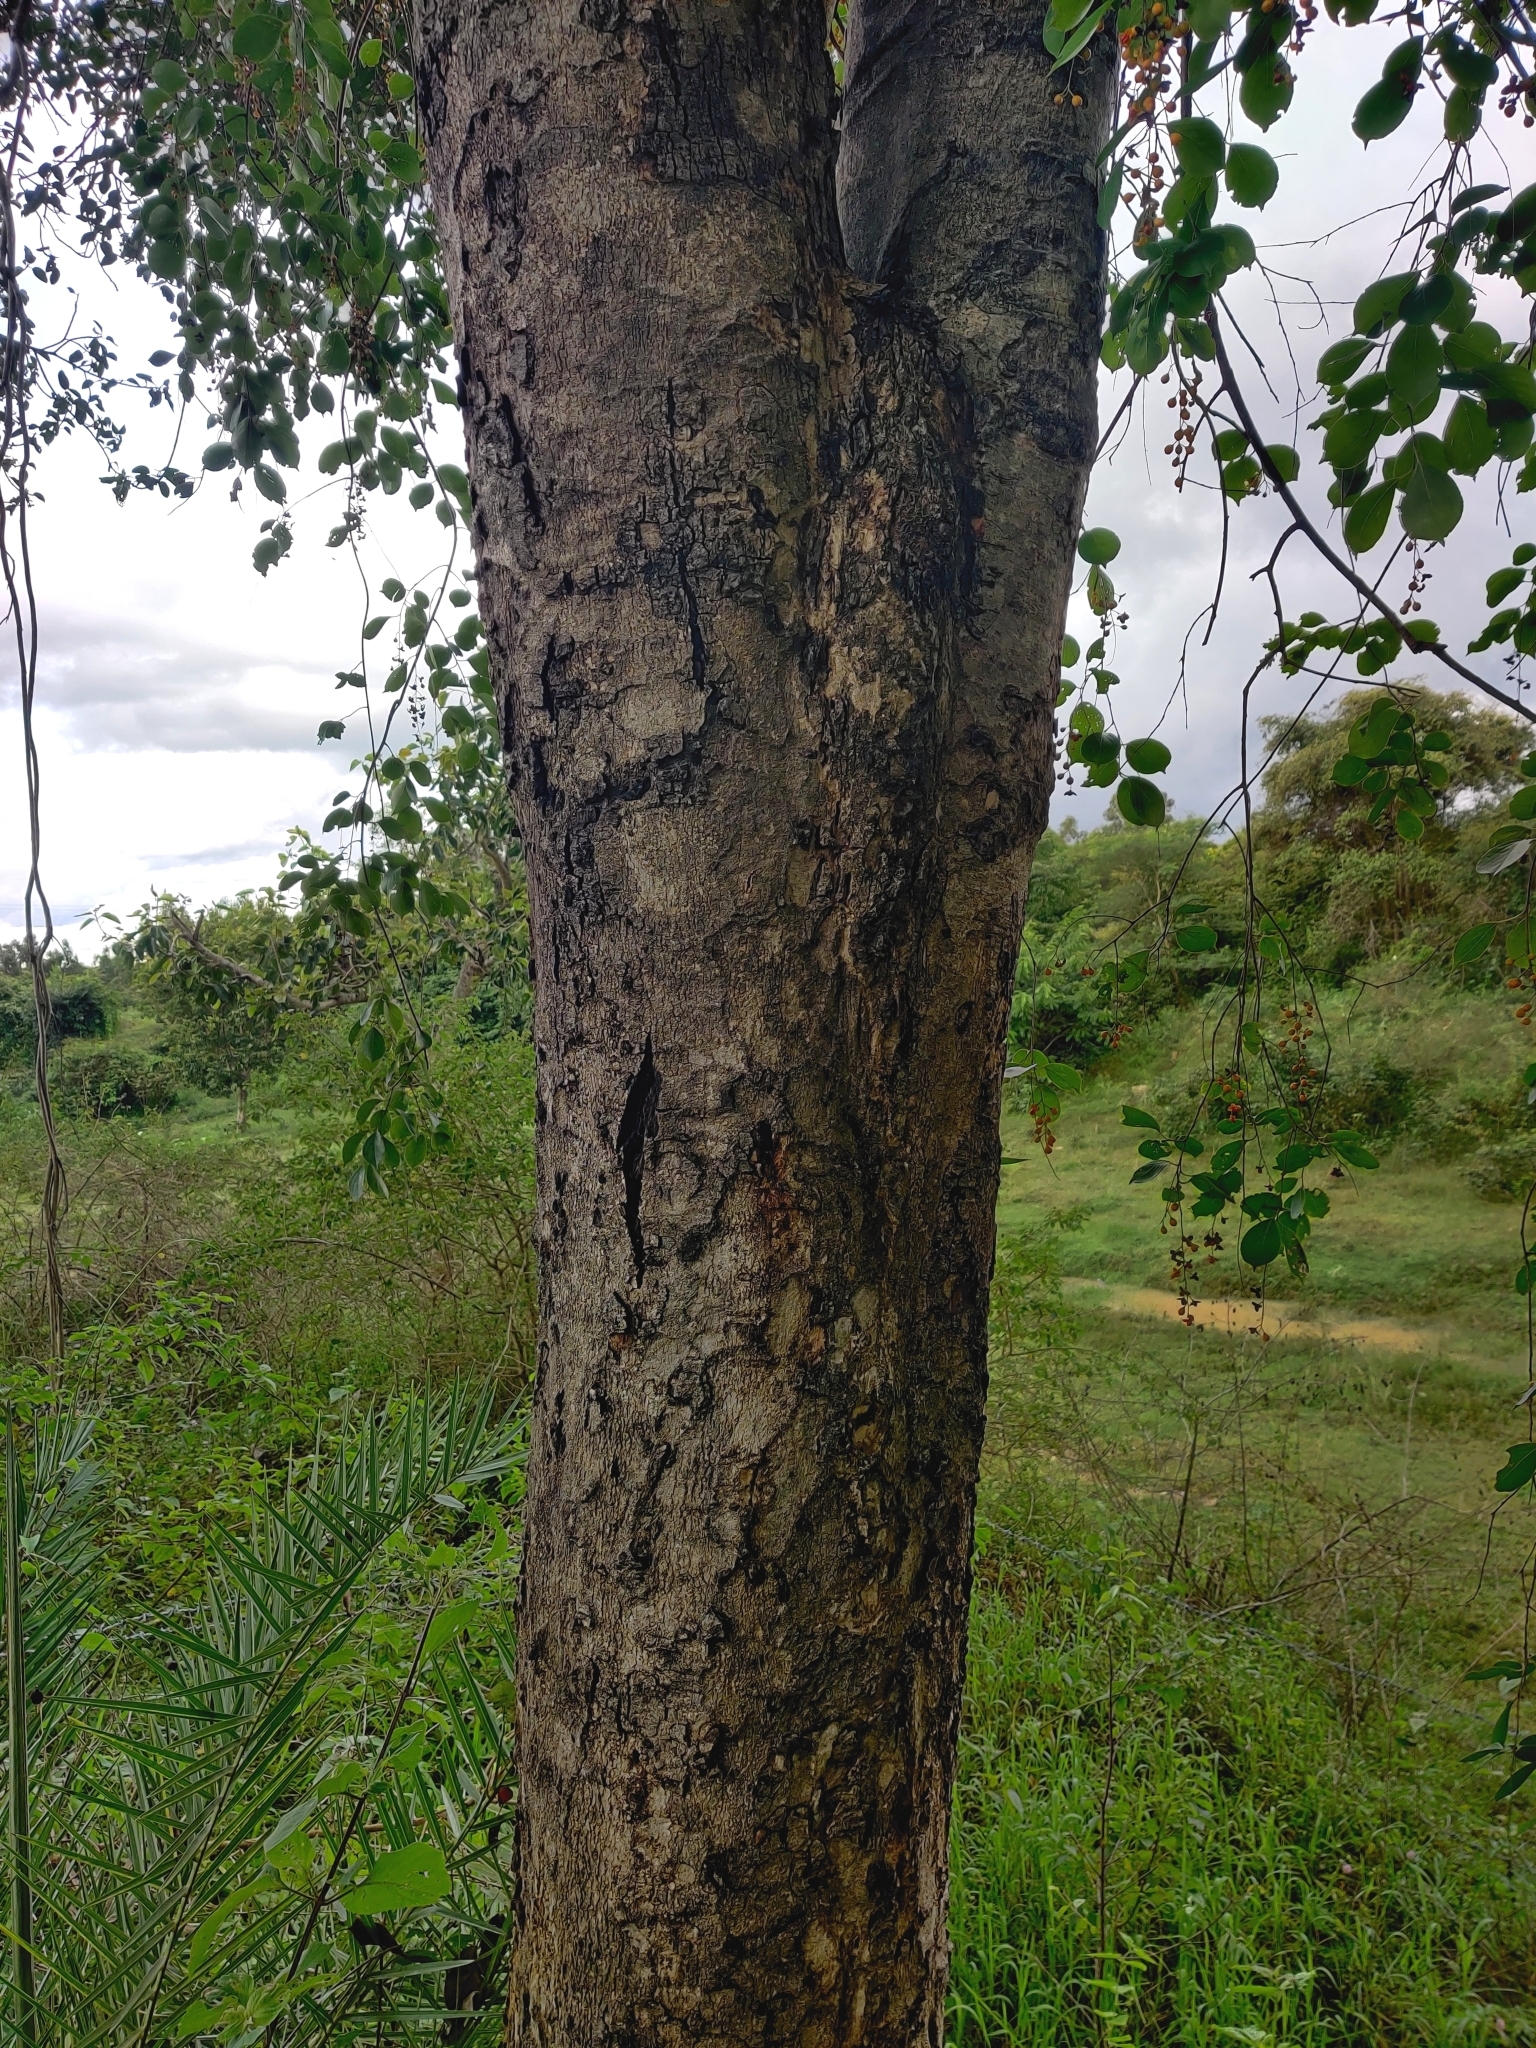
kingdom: Plantae
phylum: Tracheophyta
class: Magnoliopsida
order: Celastrales
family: Celastraceae
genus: Celastrus
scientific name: Celastrus paniculatus
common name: Oriental bittersweet; staff vine
